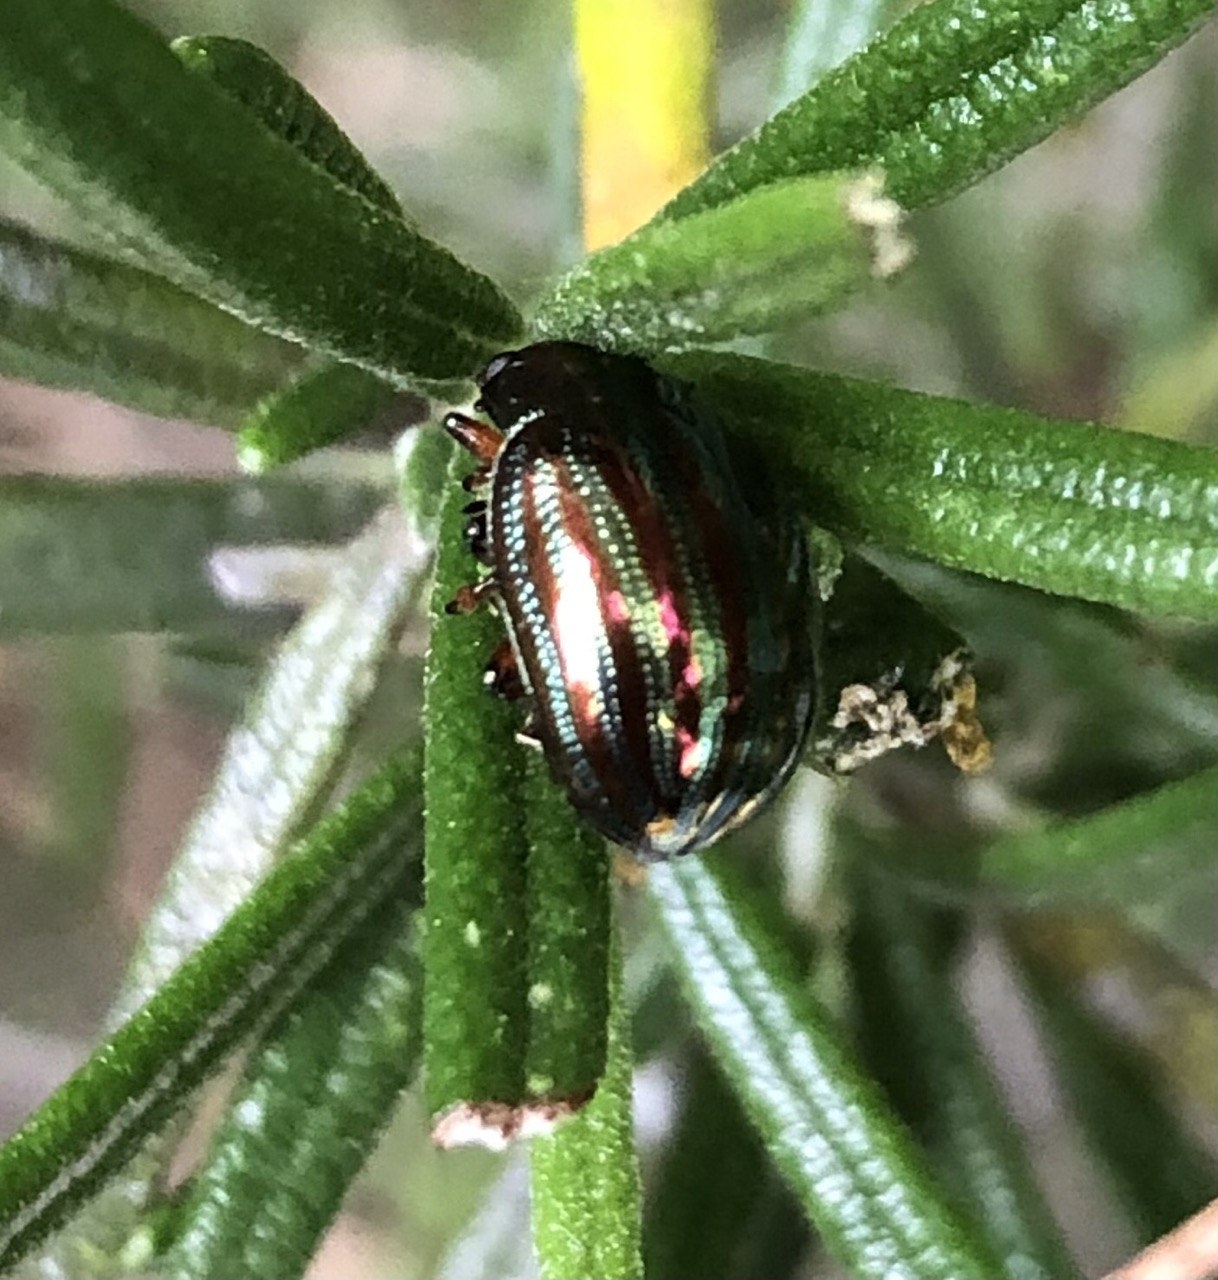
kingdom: Animalia
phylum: Arthropoda
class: Insecta
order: Coleoptera
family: Chrysomelidae
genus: Chrysolina
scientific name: Chrysolina americana
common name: Rosemary beetle
